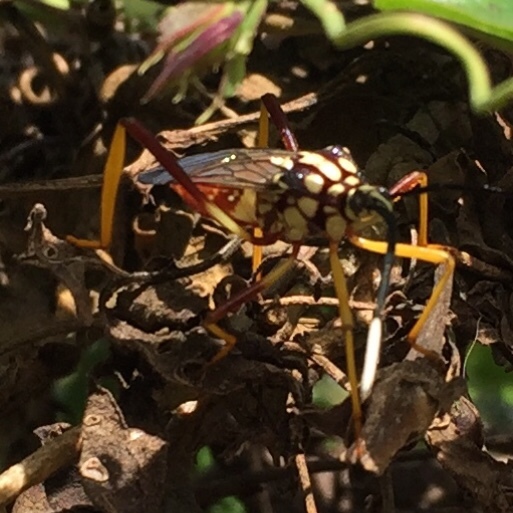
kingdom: Animalia
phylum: Arthropoda
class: Insecta
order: Hemiptera
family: Coreidae
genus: Holhymenia
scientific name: Holhymenia histrio
